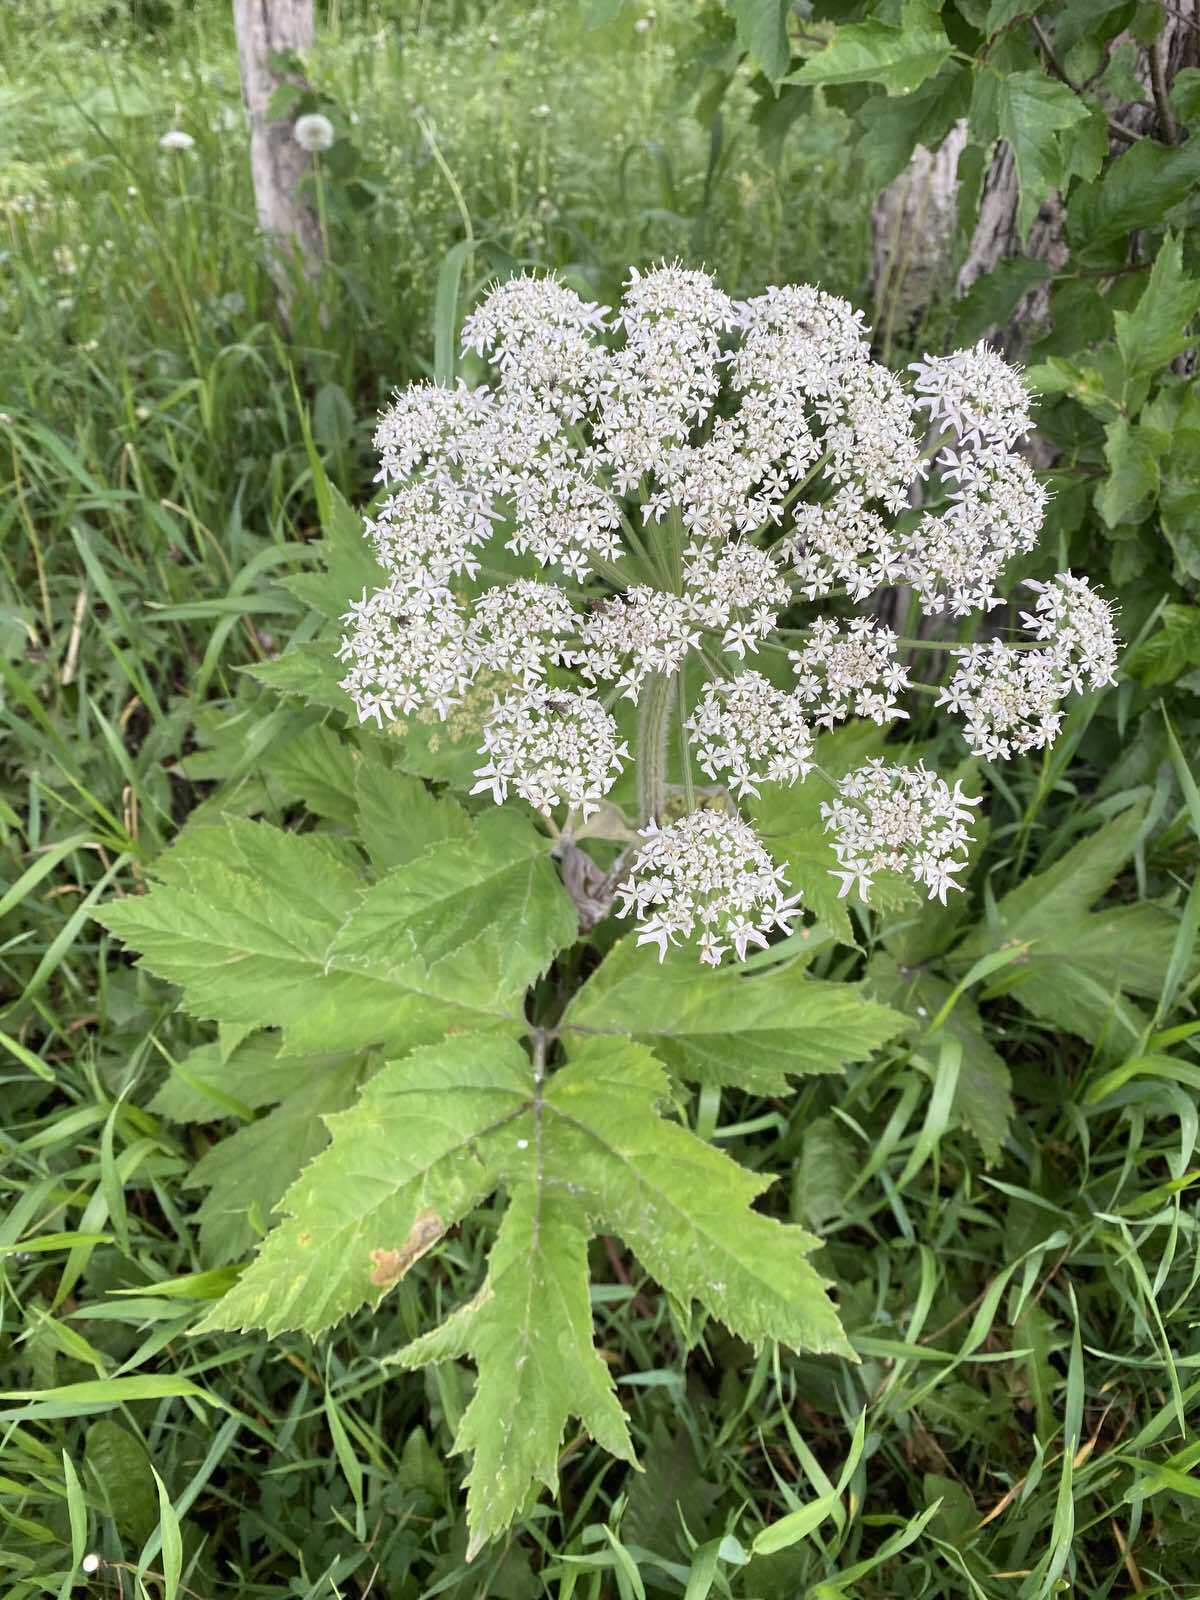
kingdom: Plantae
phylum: Tracheophyta
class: Magnoliopsida
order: Apiales
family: Apiaceae
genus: Heracleum
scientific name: Heracleum maximum
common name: American cow parsnip
